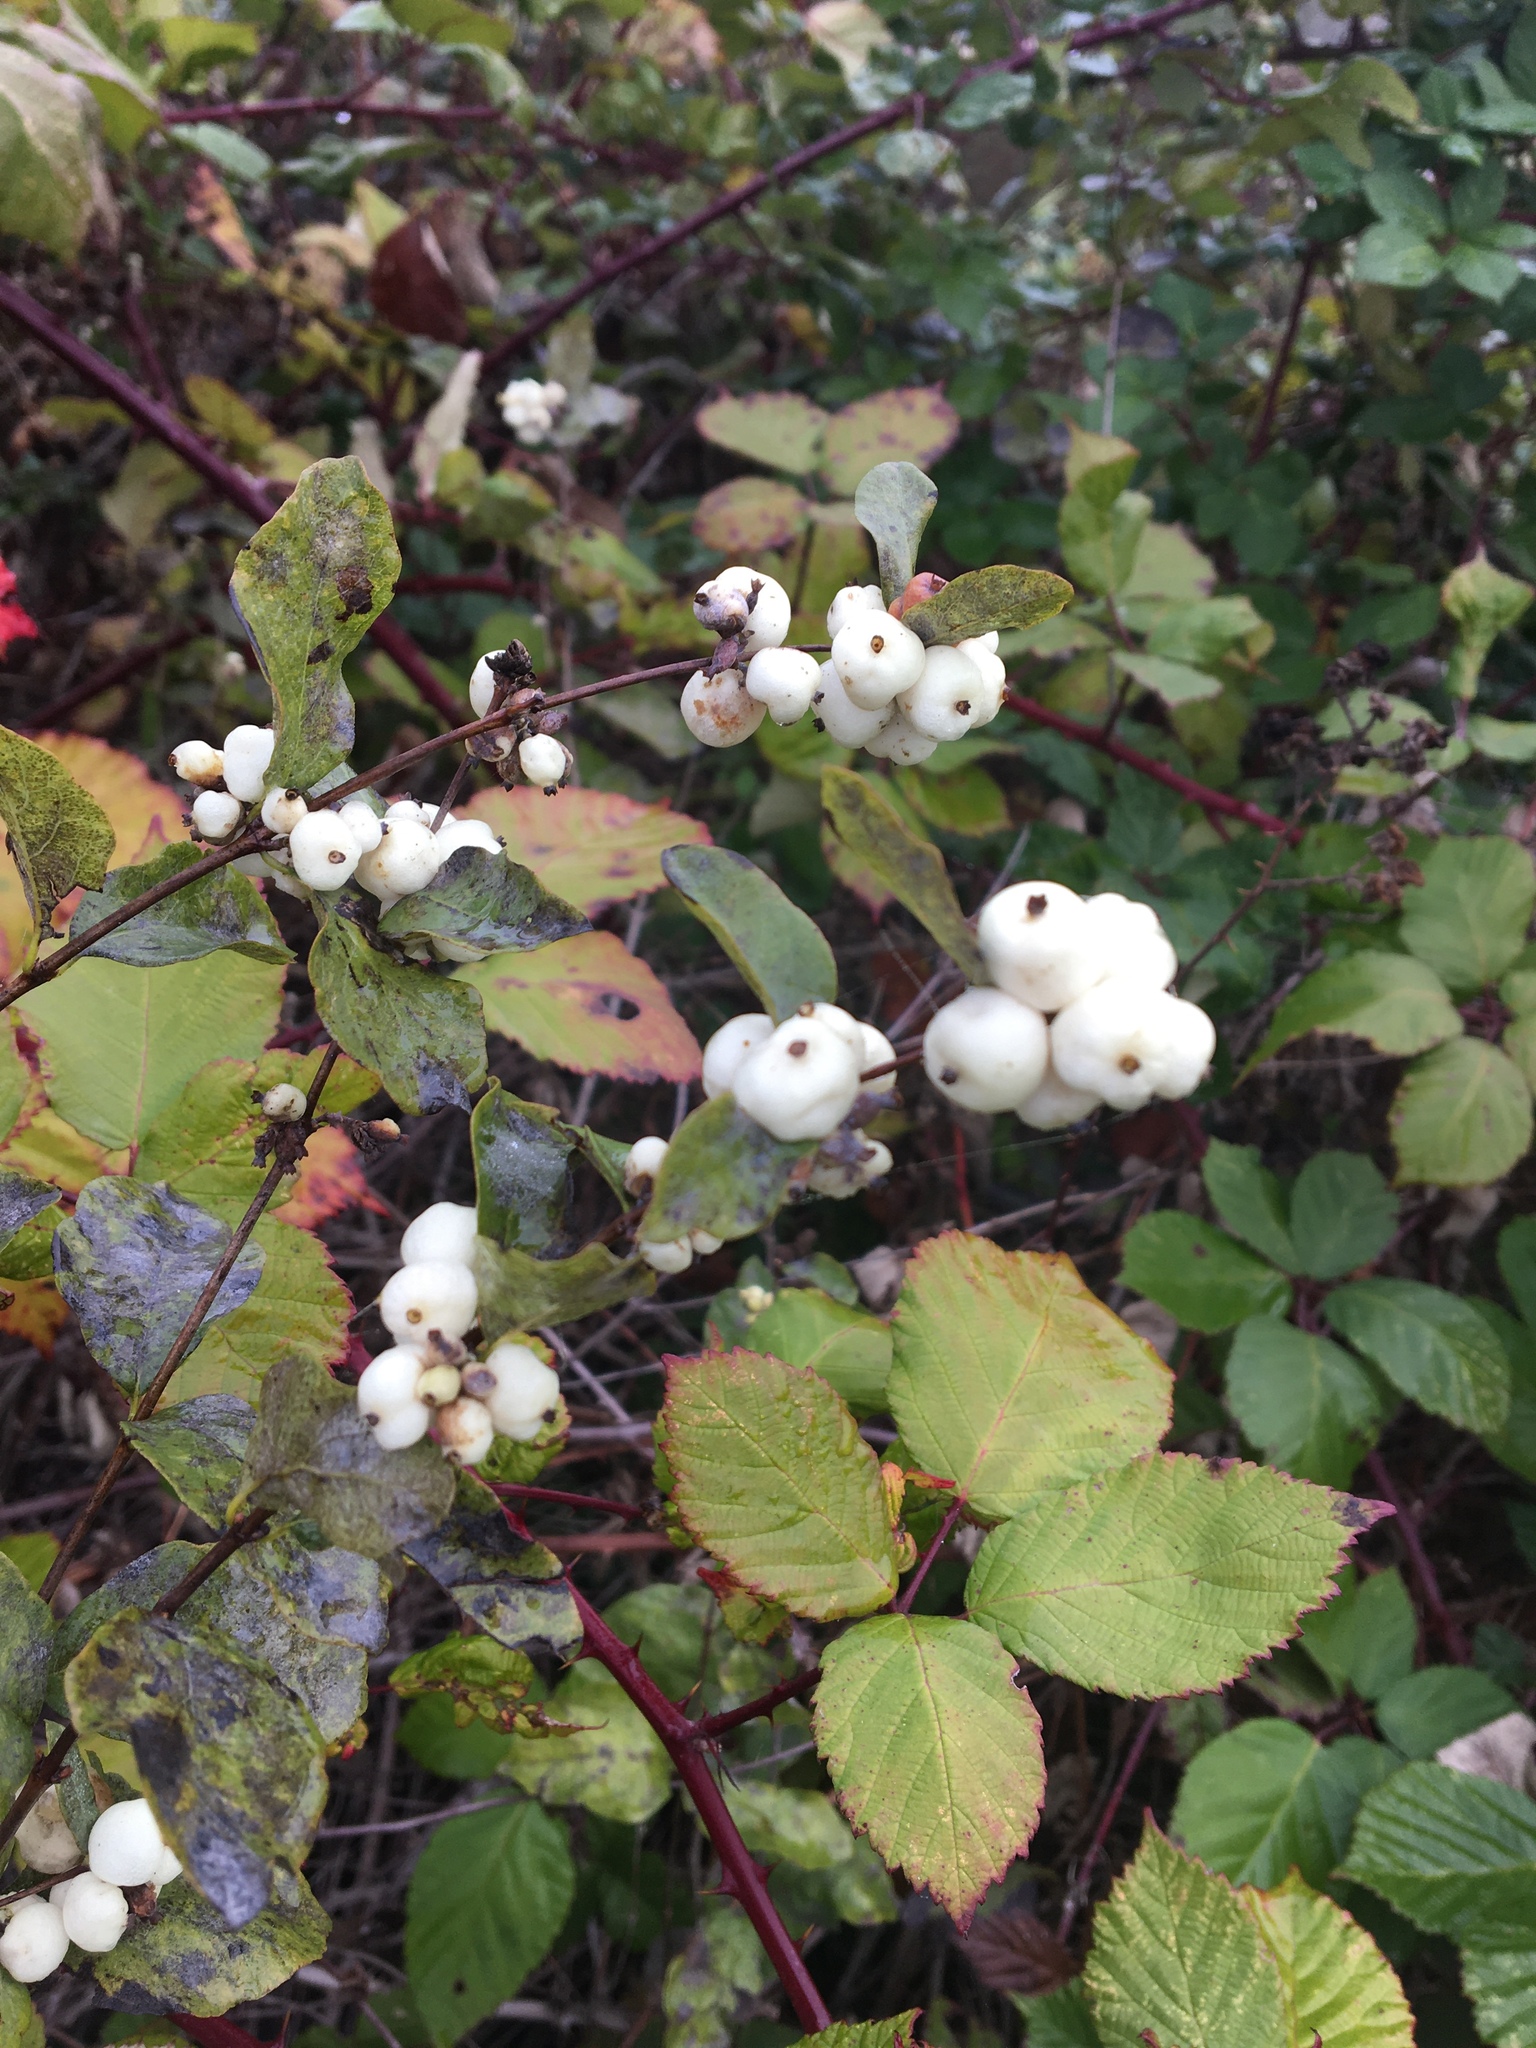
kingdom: Plantae
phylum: Tracheophyta
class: Magnoliopsida
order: Dipsacales
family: Caprifoliaceae
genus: Symphoricarpos
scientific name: Symphoricarpos albus
